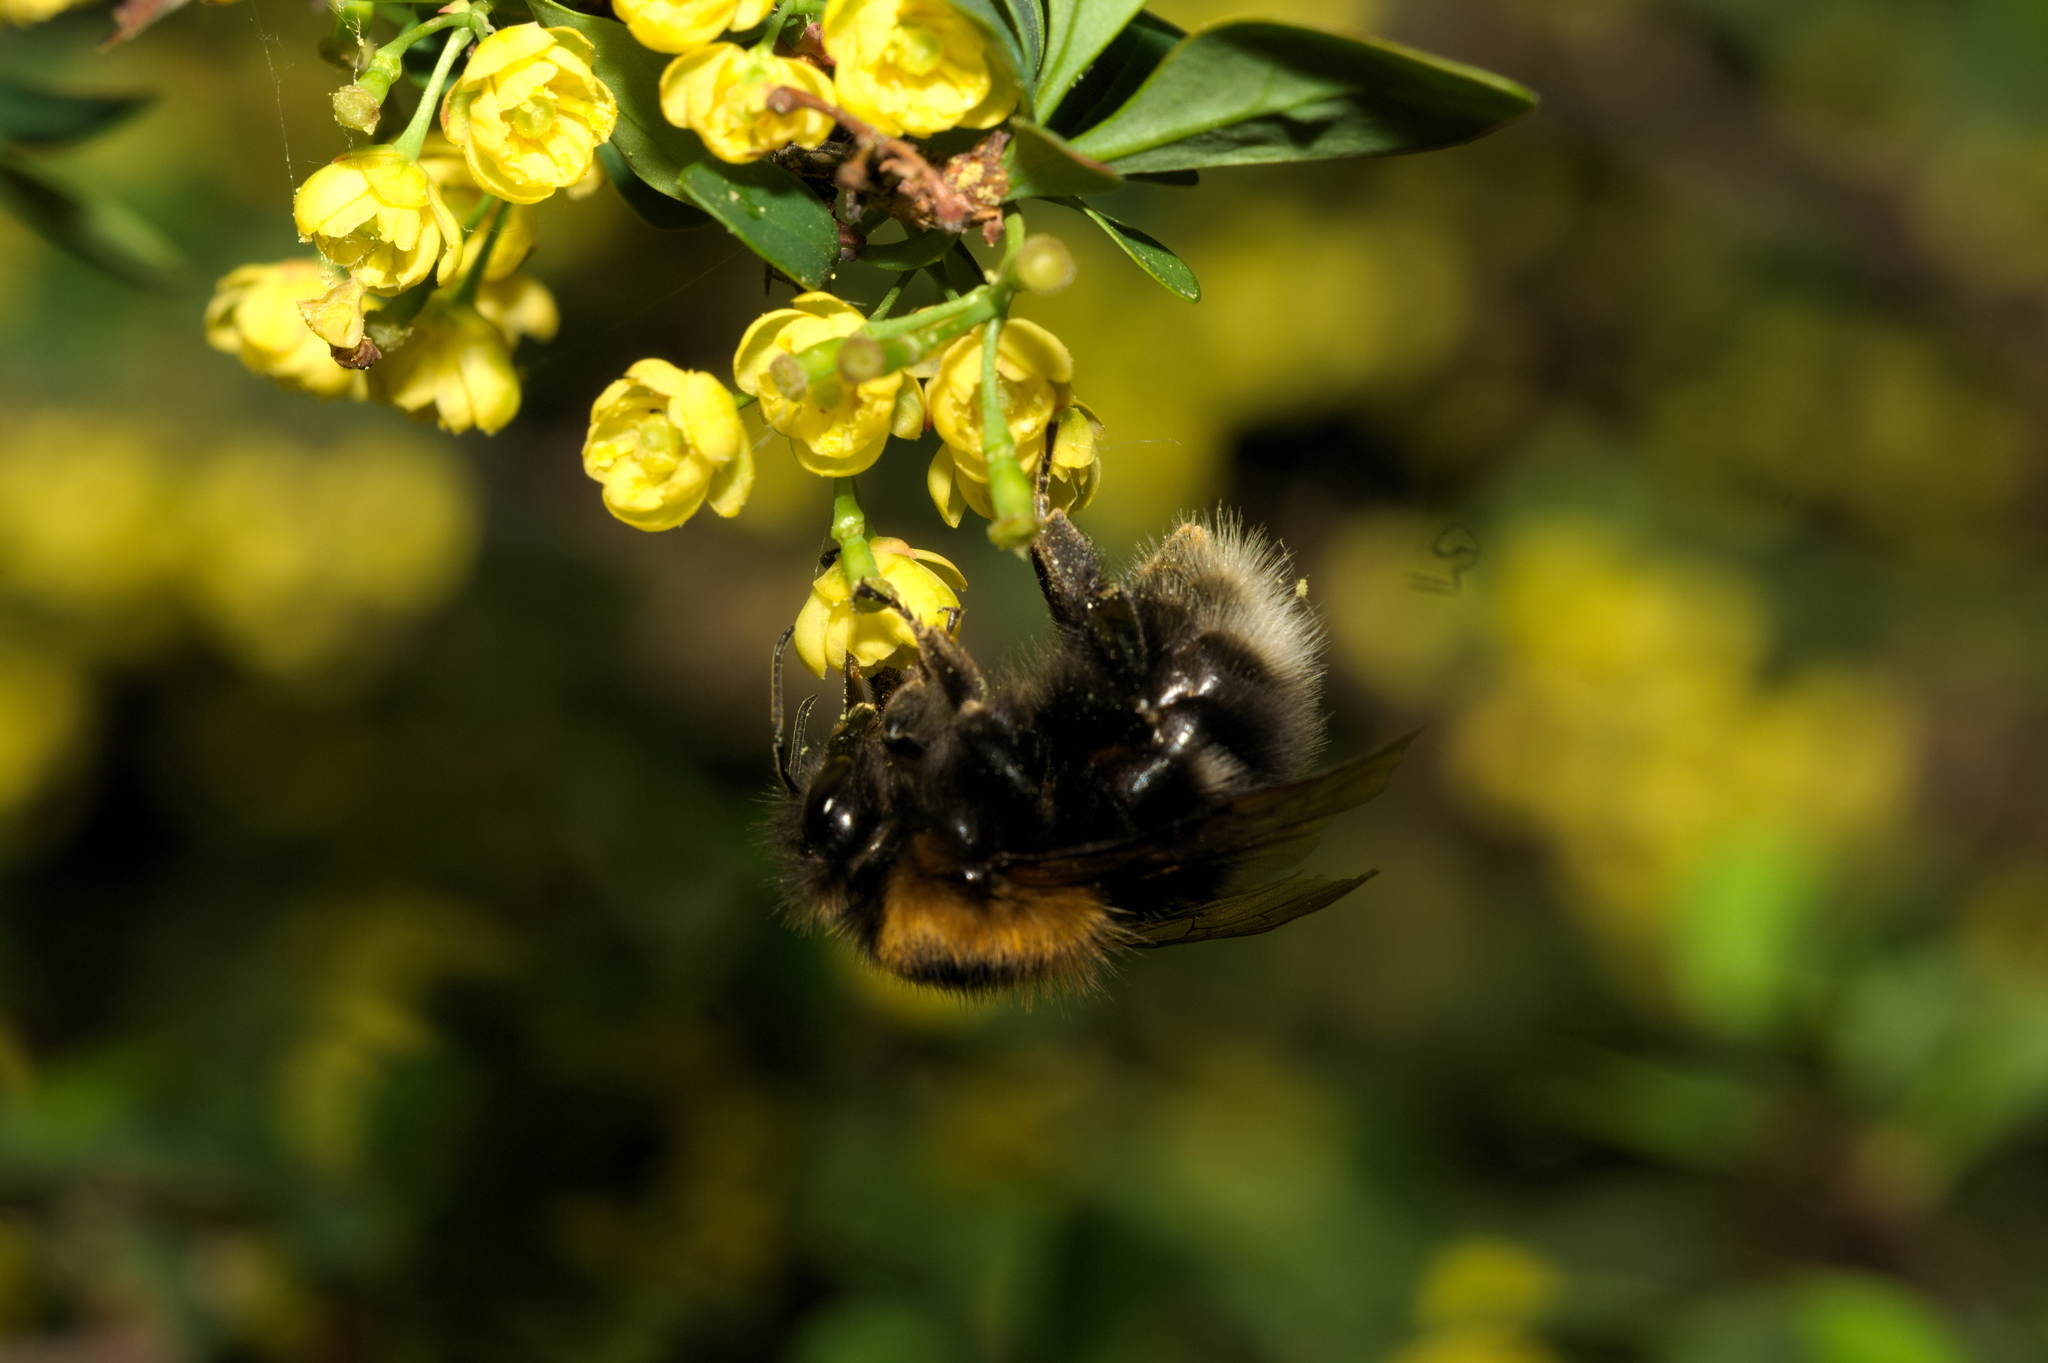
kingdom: Animalia
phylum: Arthropoda
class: Insecta
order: Hymenoptera
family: Apidae
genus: Bombus
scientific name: Bombus hypnorum
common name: New garden bumblebee
